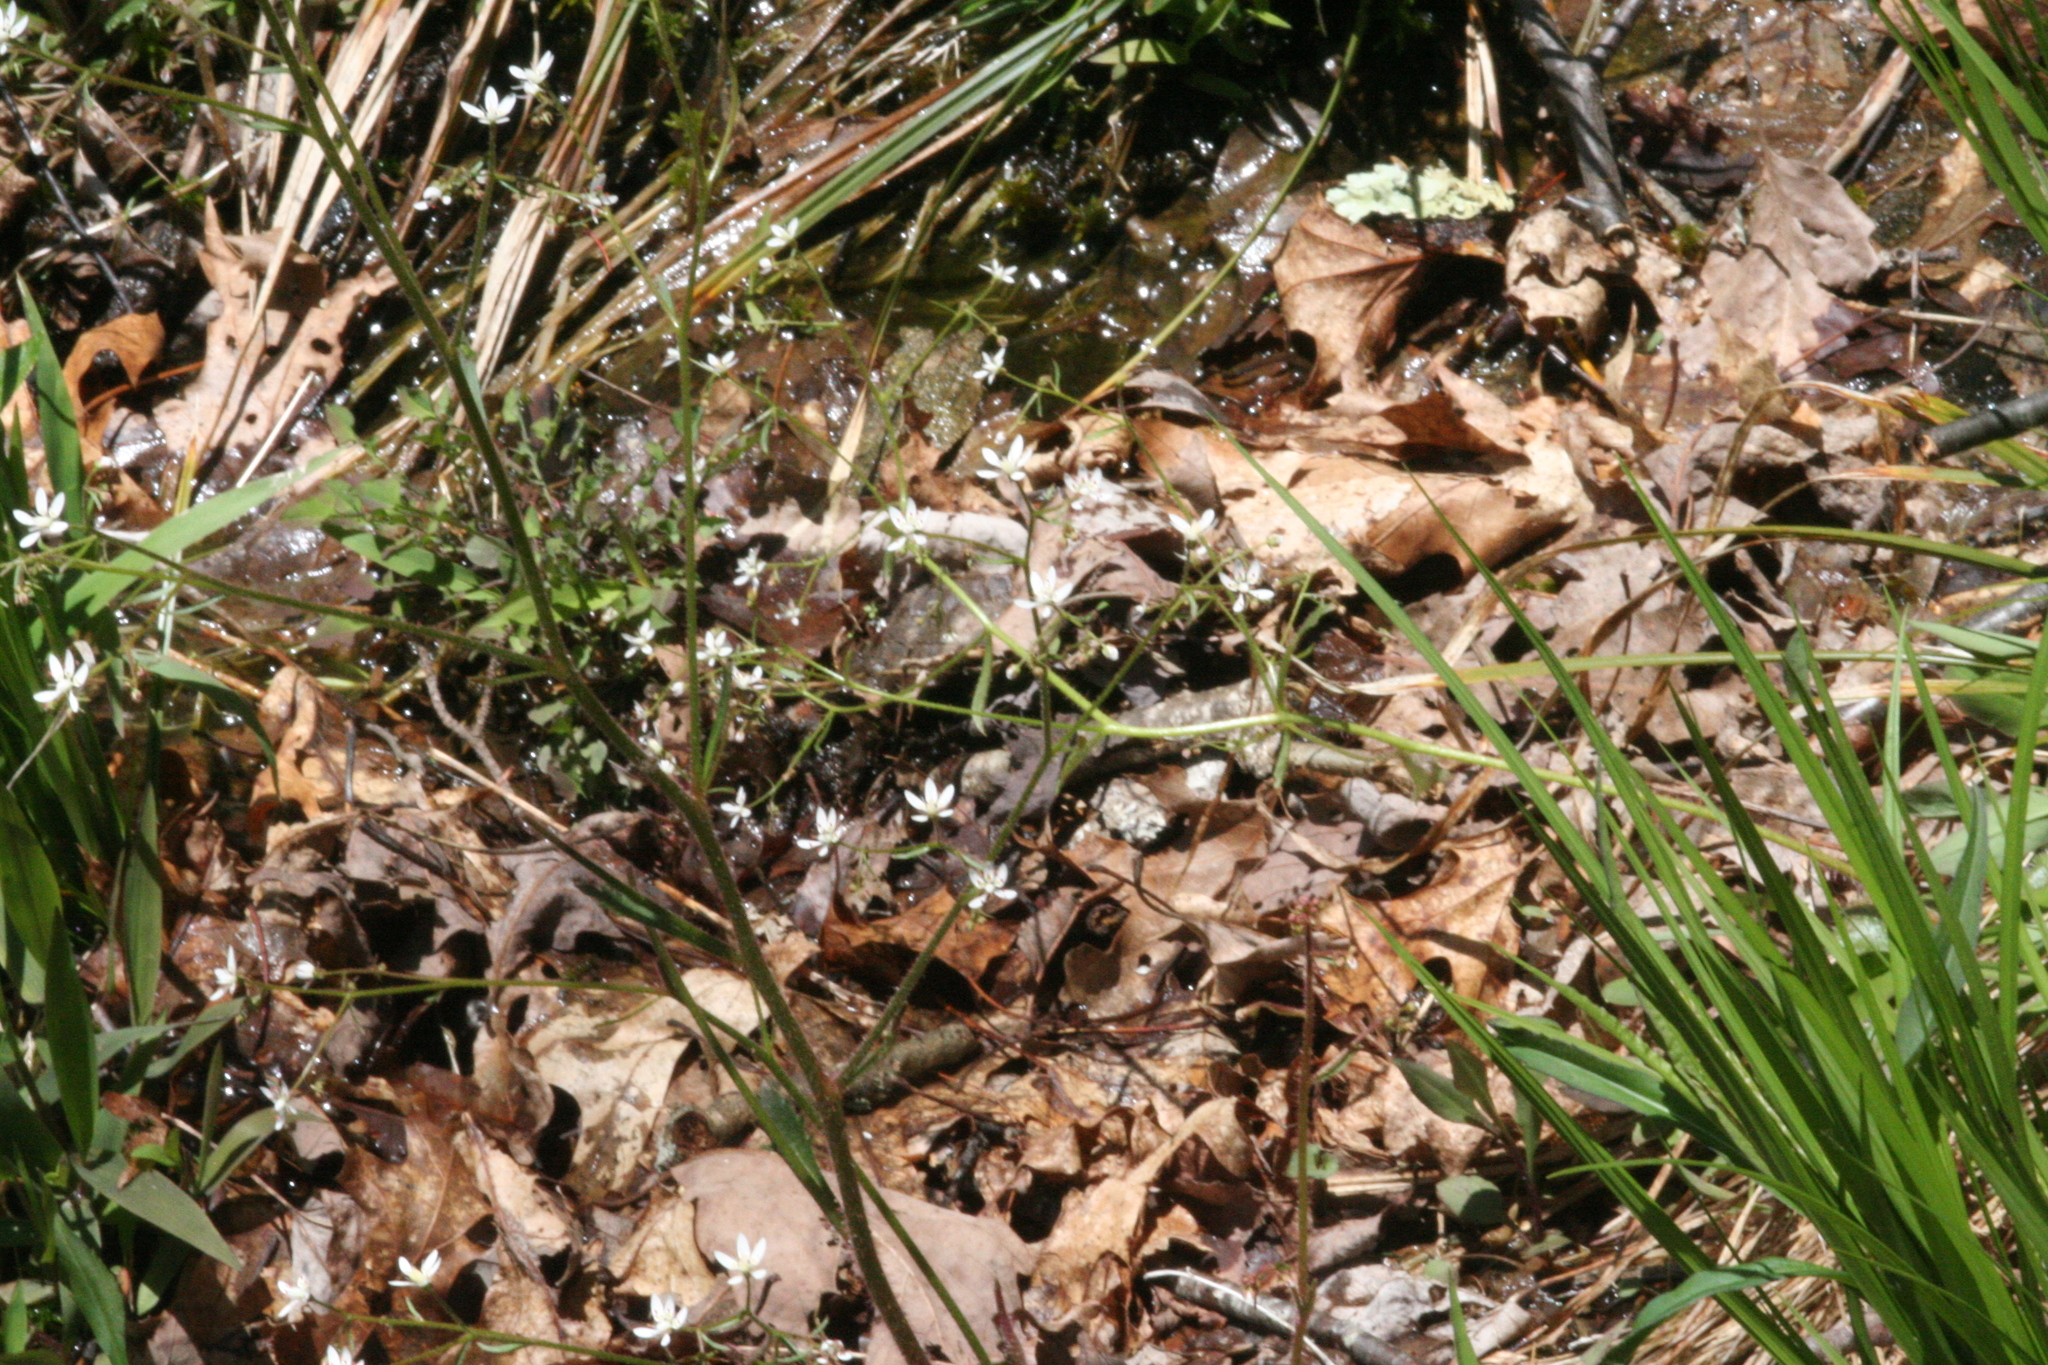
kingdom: Plantae
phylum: Tracheophyta
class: Magnoliopsida
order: Saxifragales
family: Saxifragaceae
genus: Micranthes
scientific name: Micranthes petiolaris
